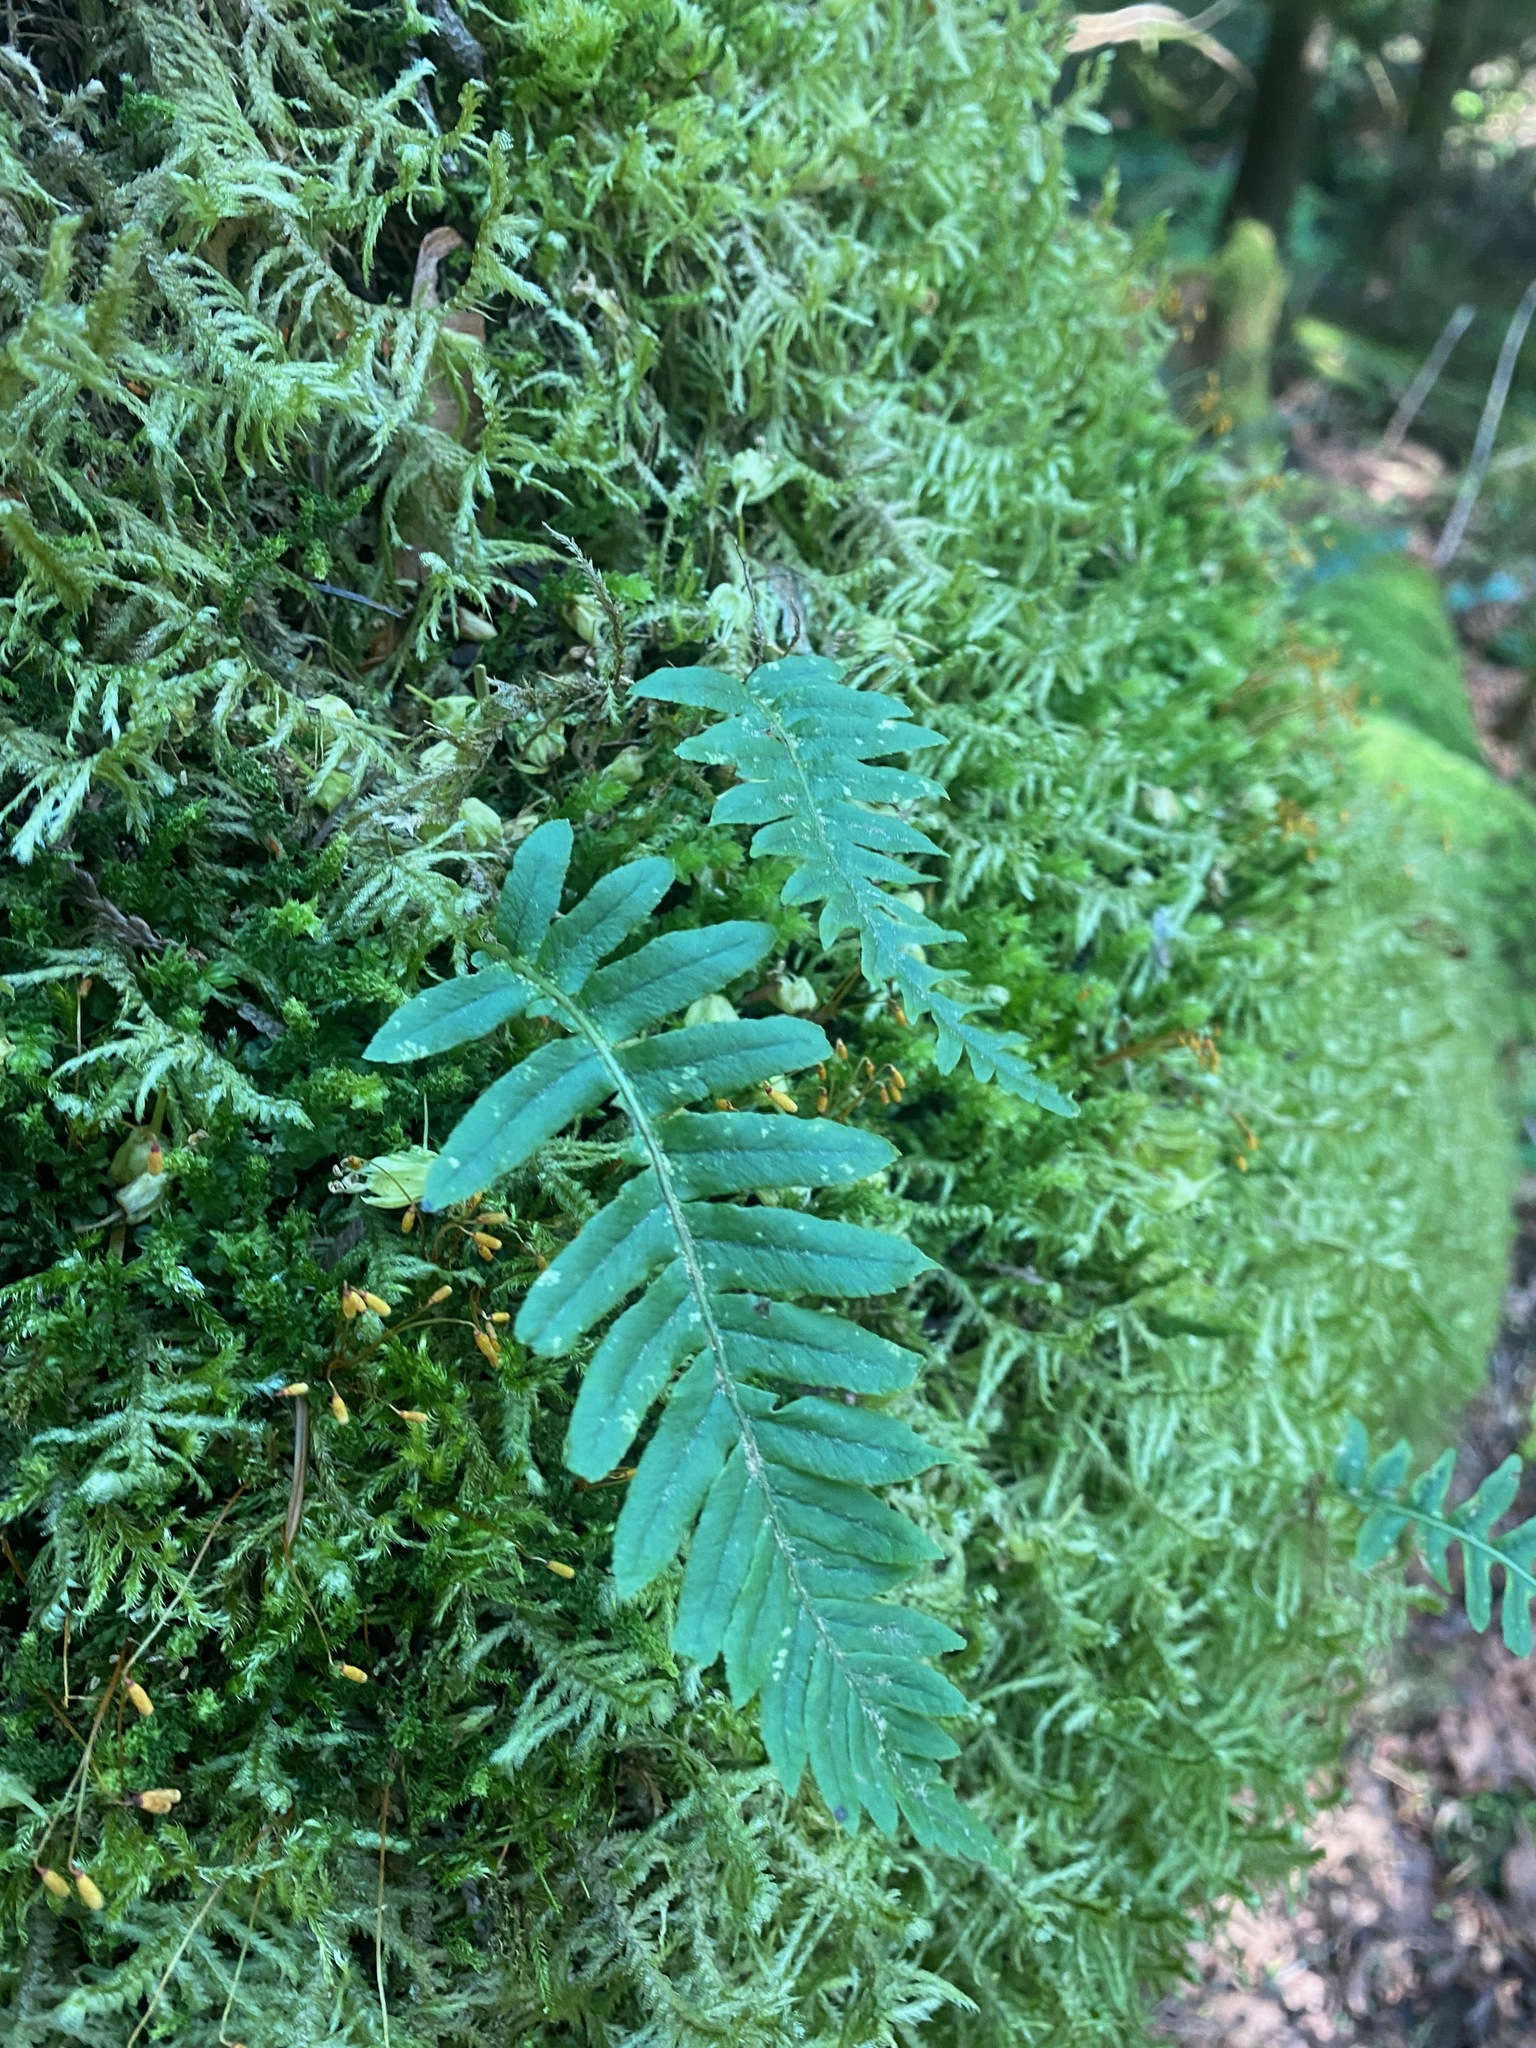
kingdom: Plantae
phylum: Tracheophyta
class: Polypodiopsida
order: Polypodiales
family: Polypodiaceae
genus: Polypodium
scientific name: Polypodium glycyrrhiza
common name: Licorice fern
